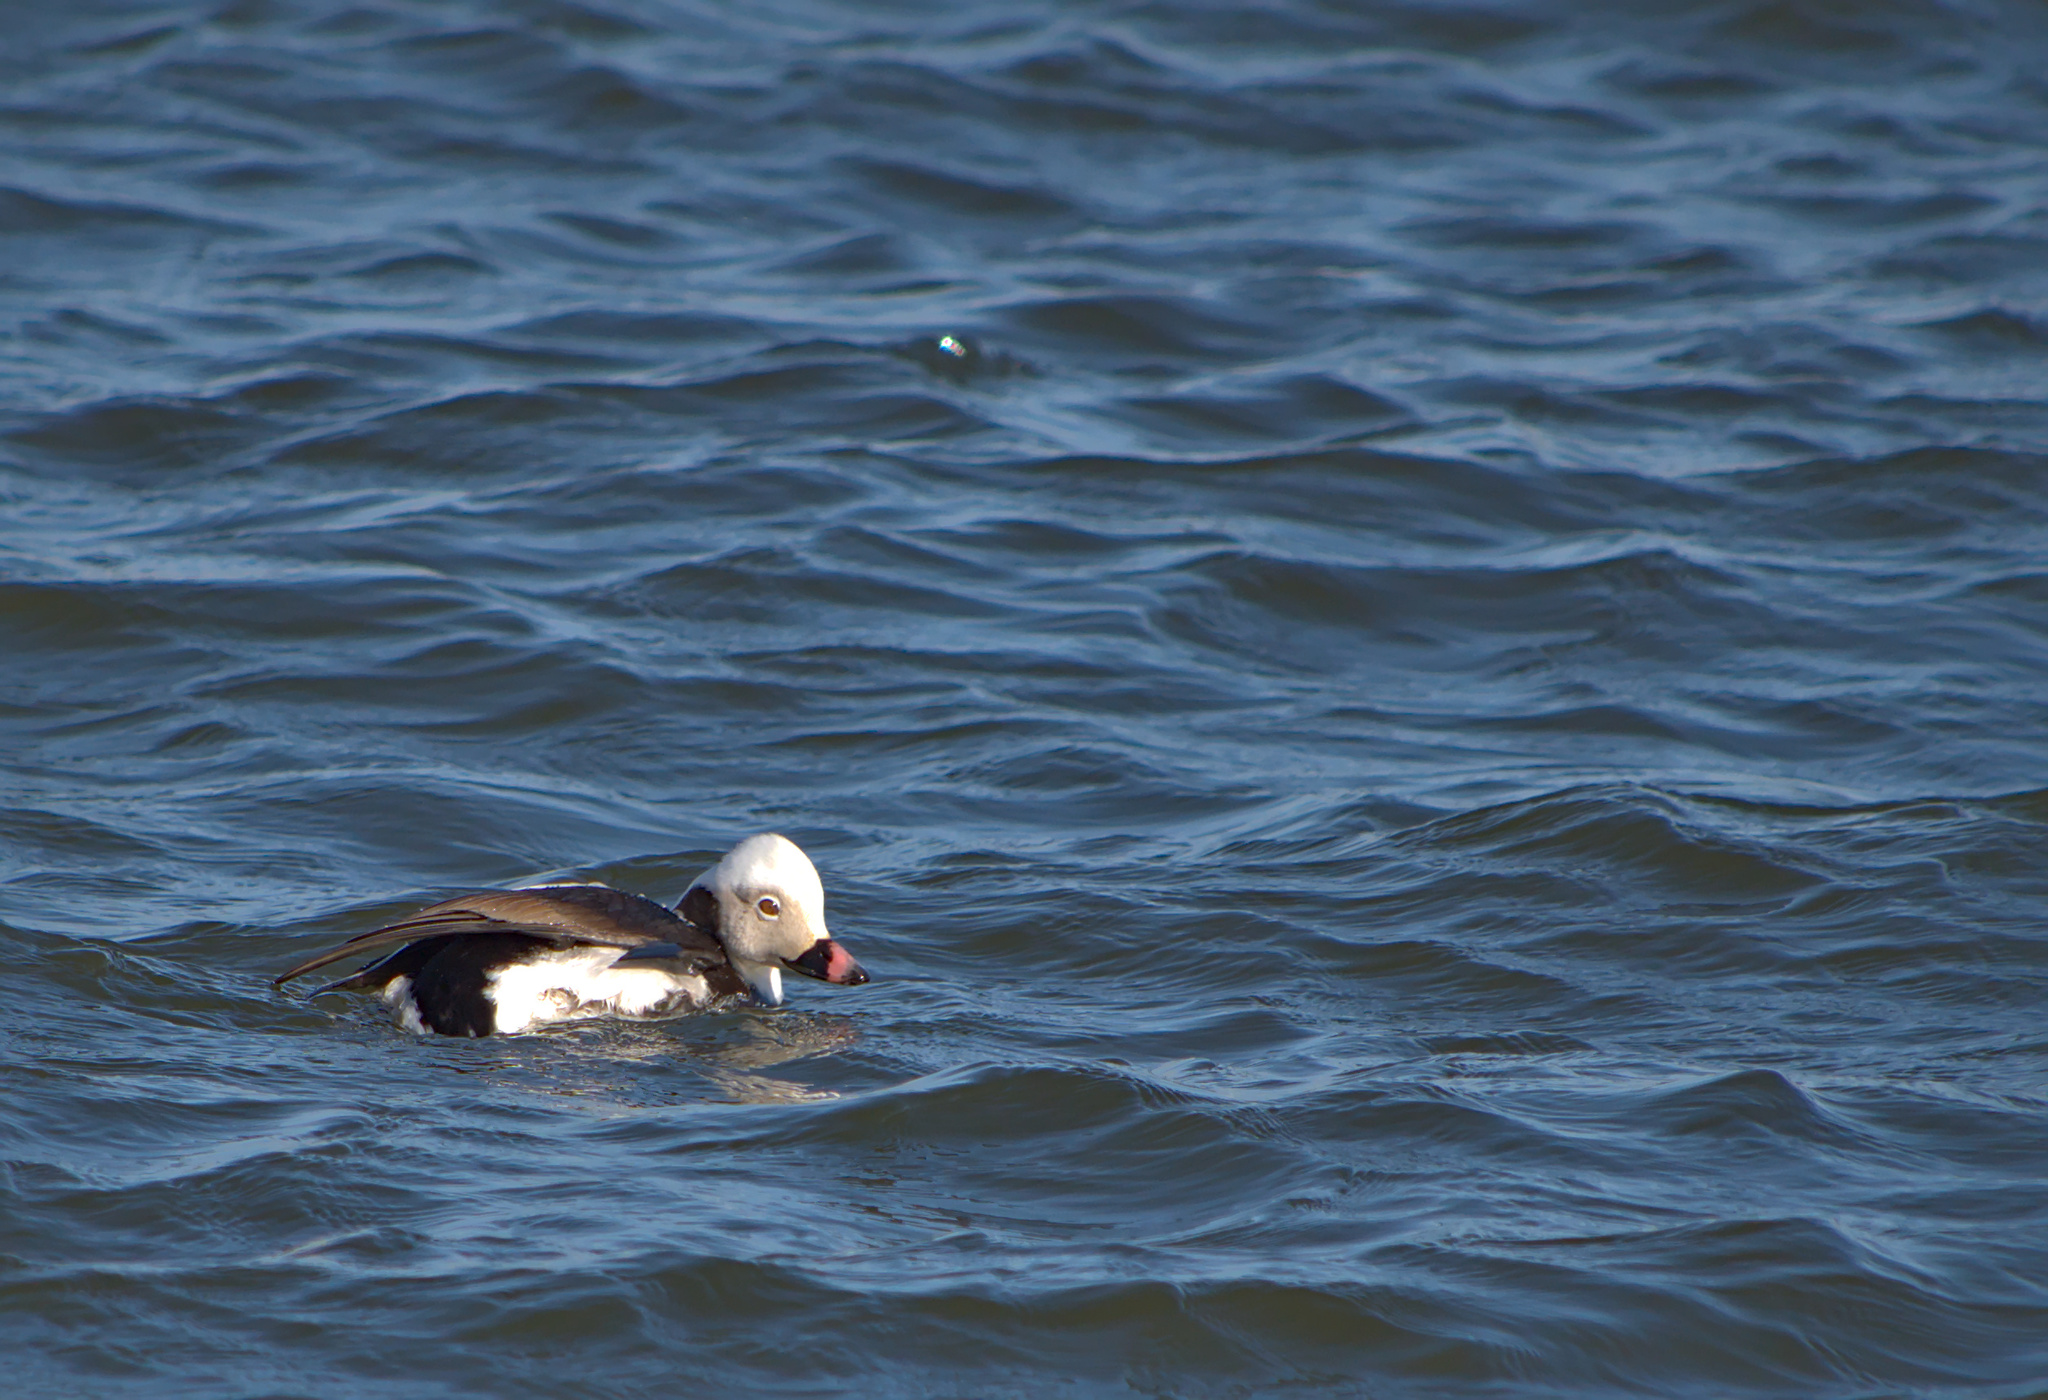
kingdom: Animalia
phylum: Chordata
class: Aves
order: Anseriformes
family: Anatidae
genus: Clangula
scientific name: Clangula hyemalis
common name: Long-tailed duck
